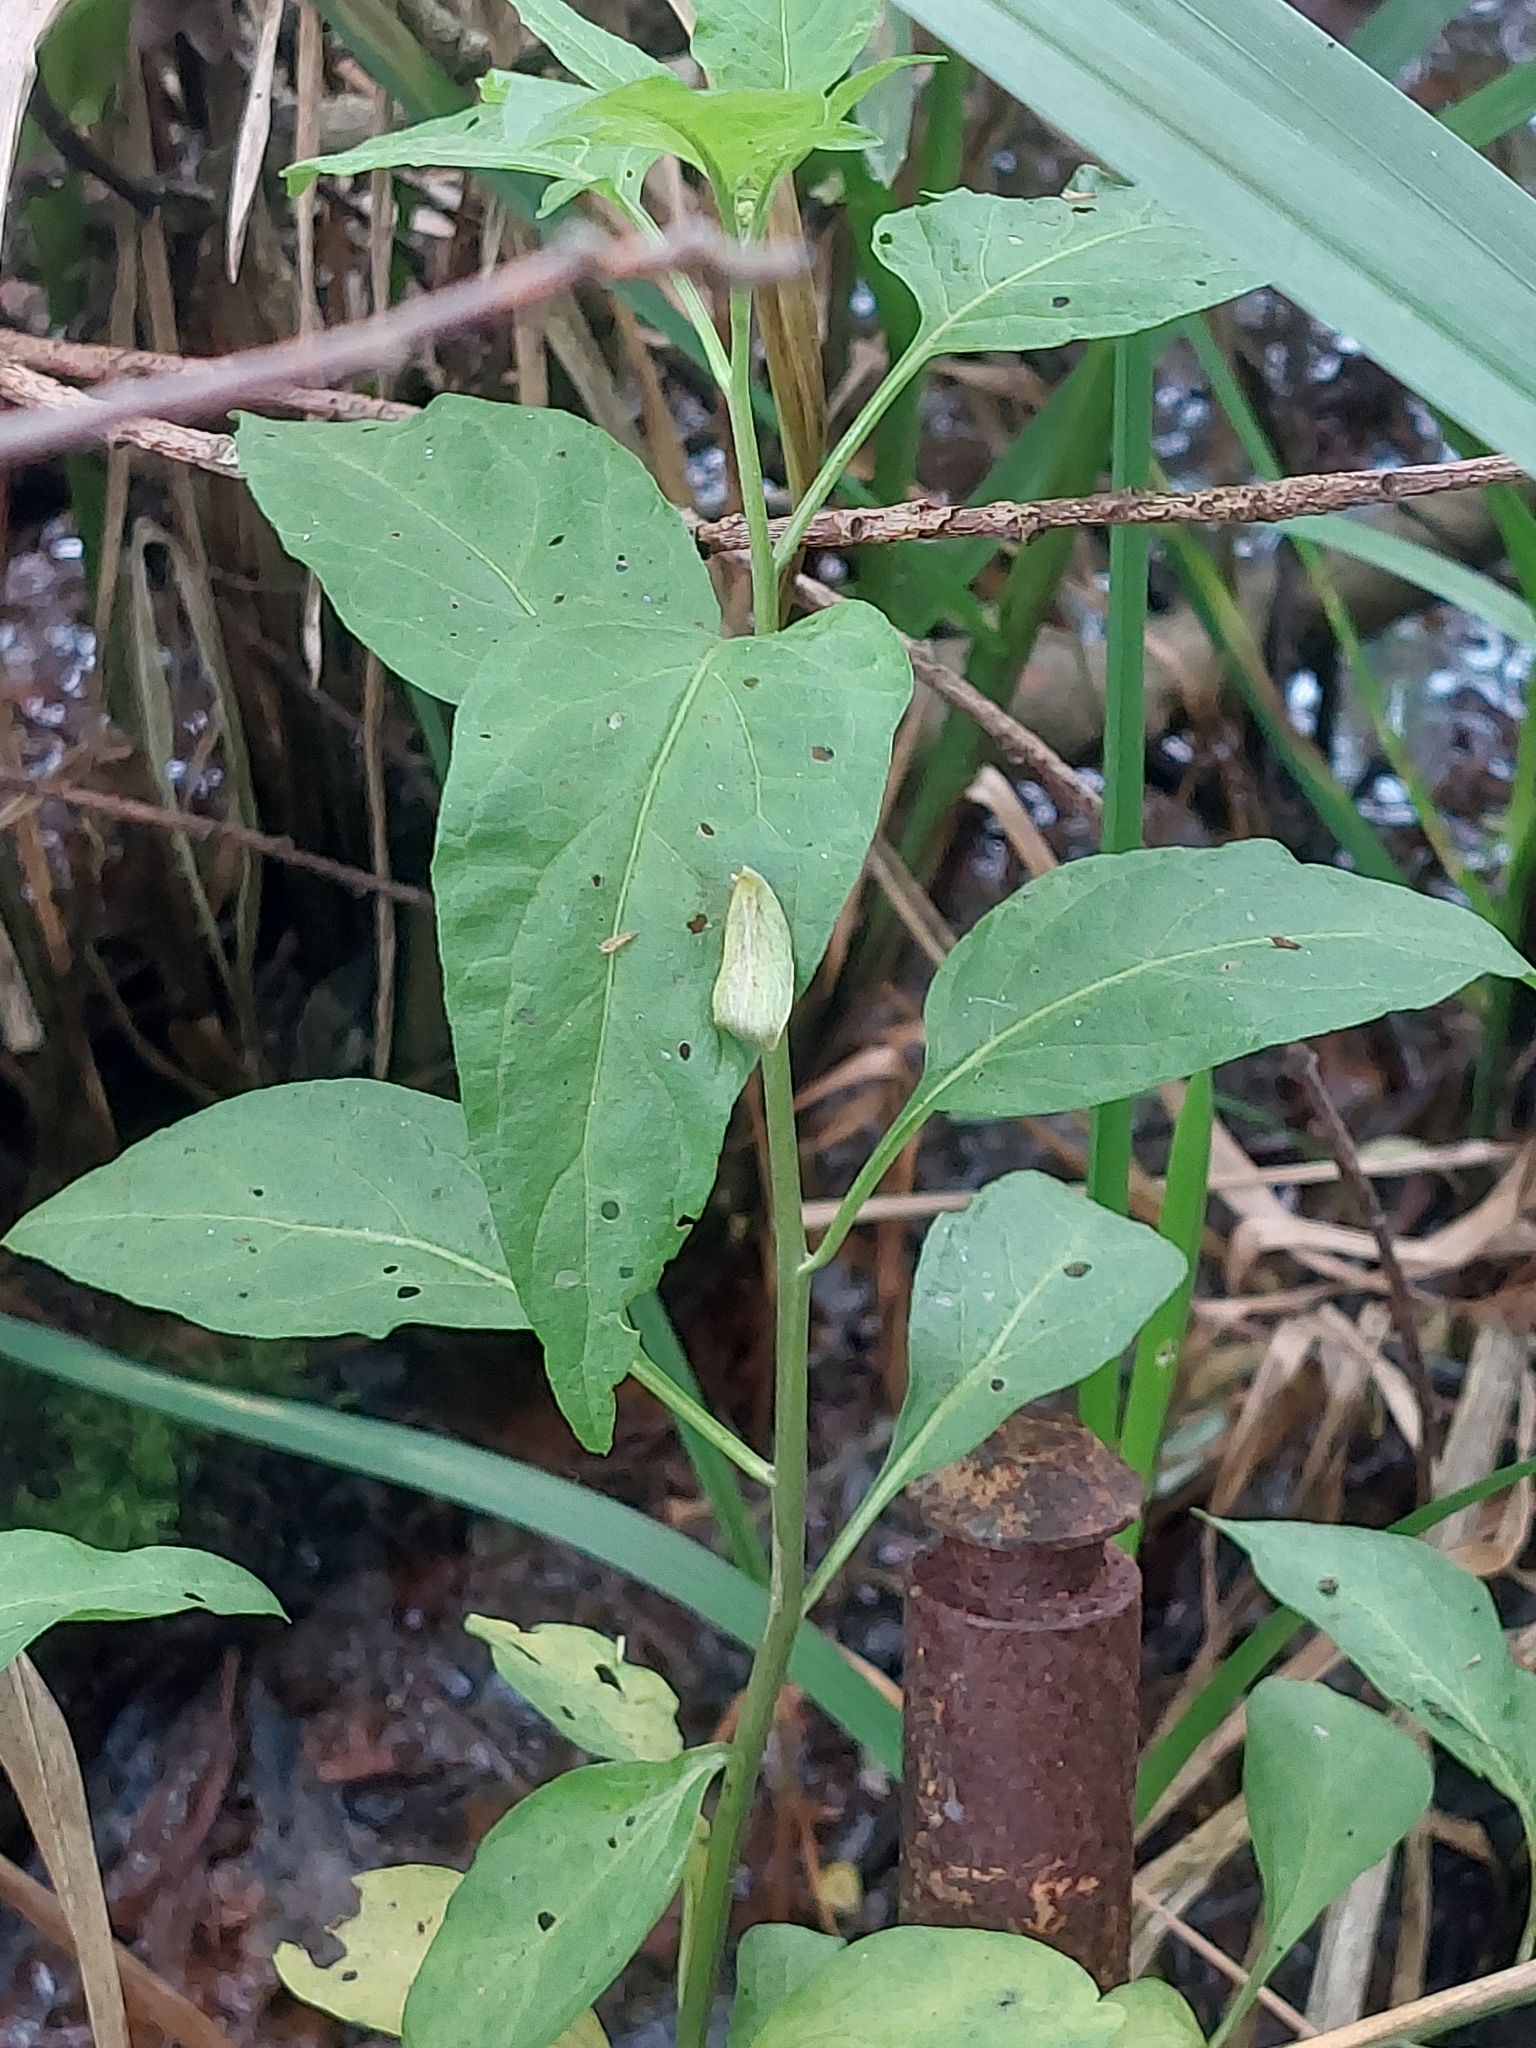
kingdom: Plantae
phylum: Tracheophyta
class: Magnoliopsida
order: Solanales
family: Solanaceae
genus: Solanum
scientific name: Solanum dulcamara
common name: Climbing nightshade
